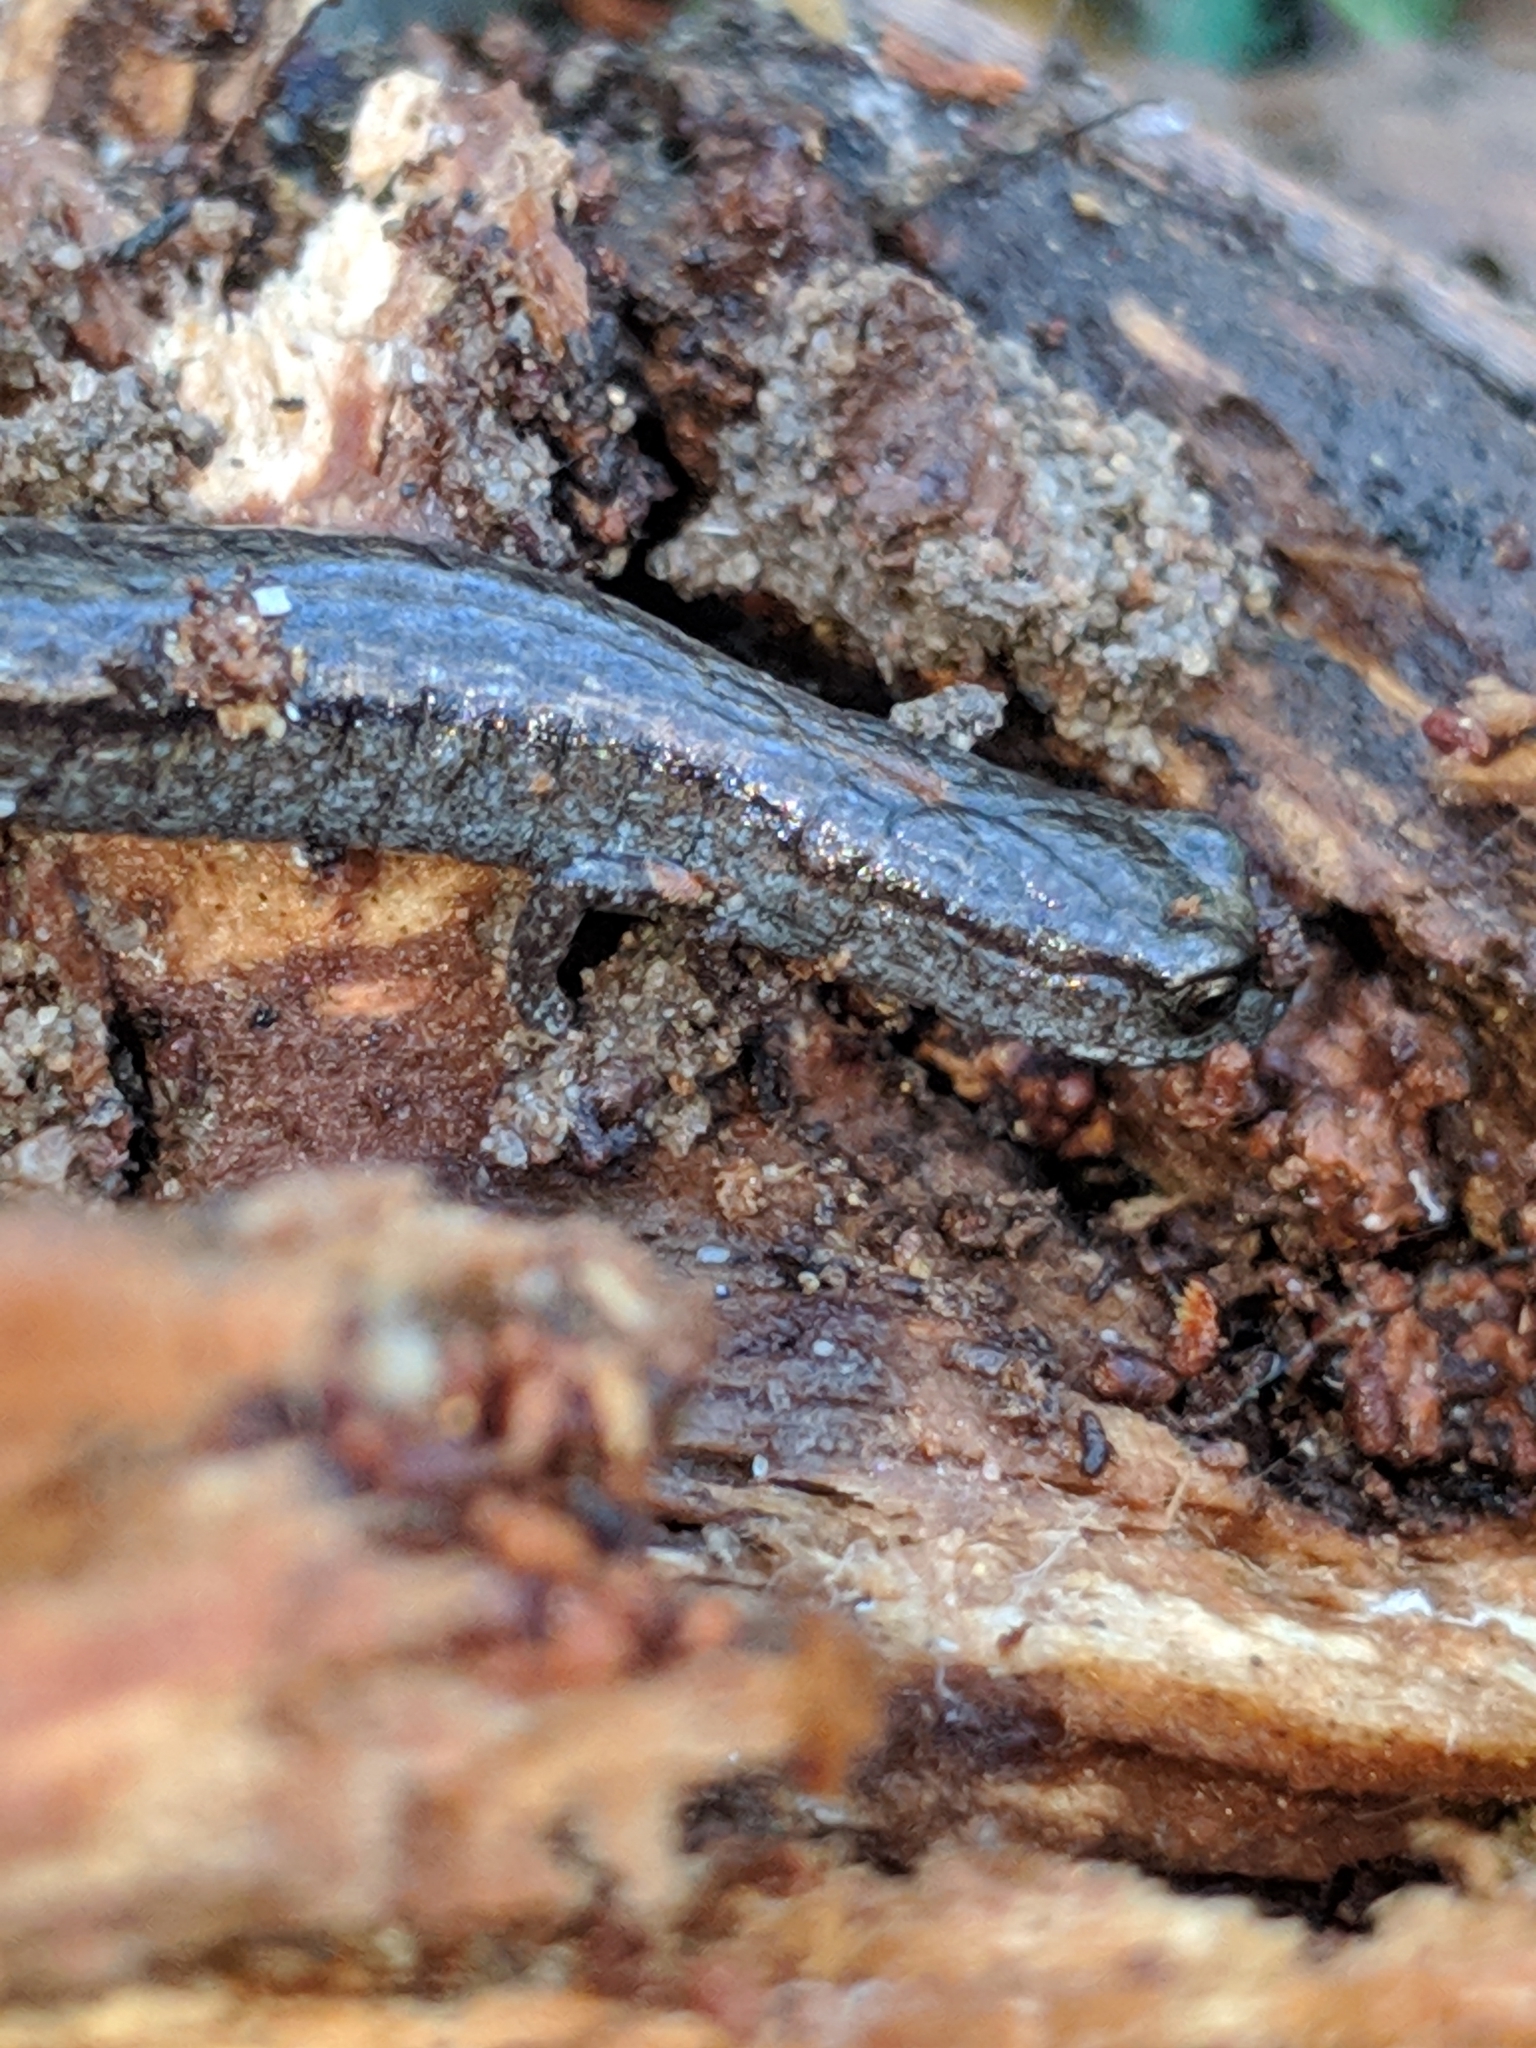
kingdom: Animalia
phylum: Chordata
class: Amphibia
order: Caudata
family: Plethodontidae
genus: Batrachoseps
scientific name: Batrachoseps nigriventris
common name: Black-bellied slender salamander
